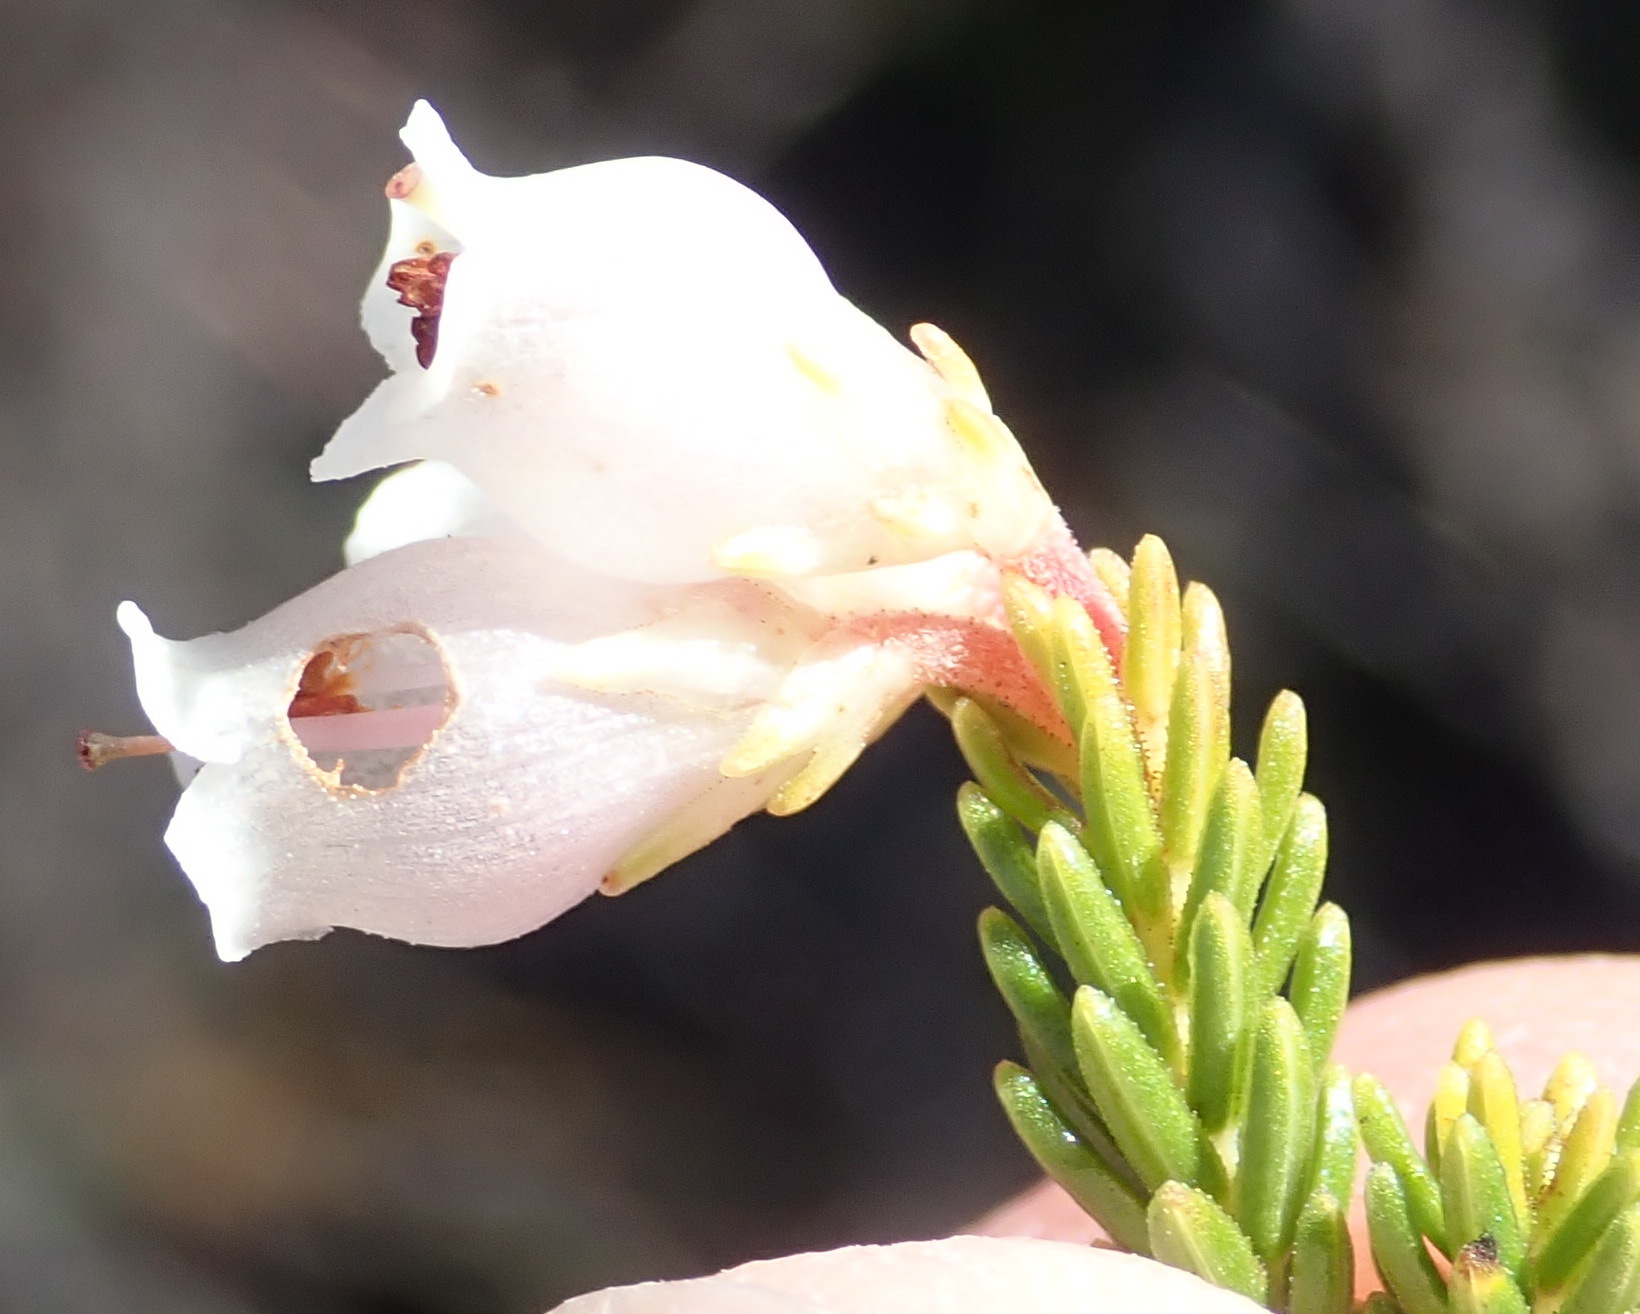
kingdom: Plantae
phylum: Tracheophyta
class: Magnoliopsida
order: Ericales
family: Ericaceae
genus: Erica
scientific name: Erica recta
